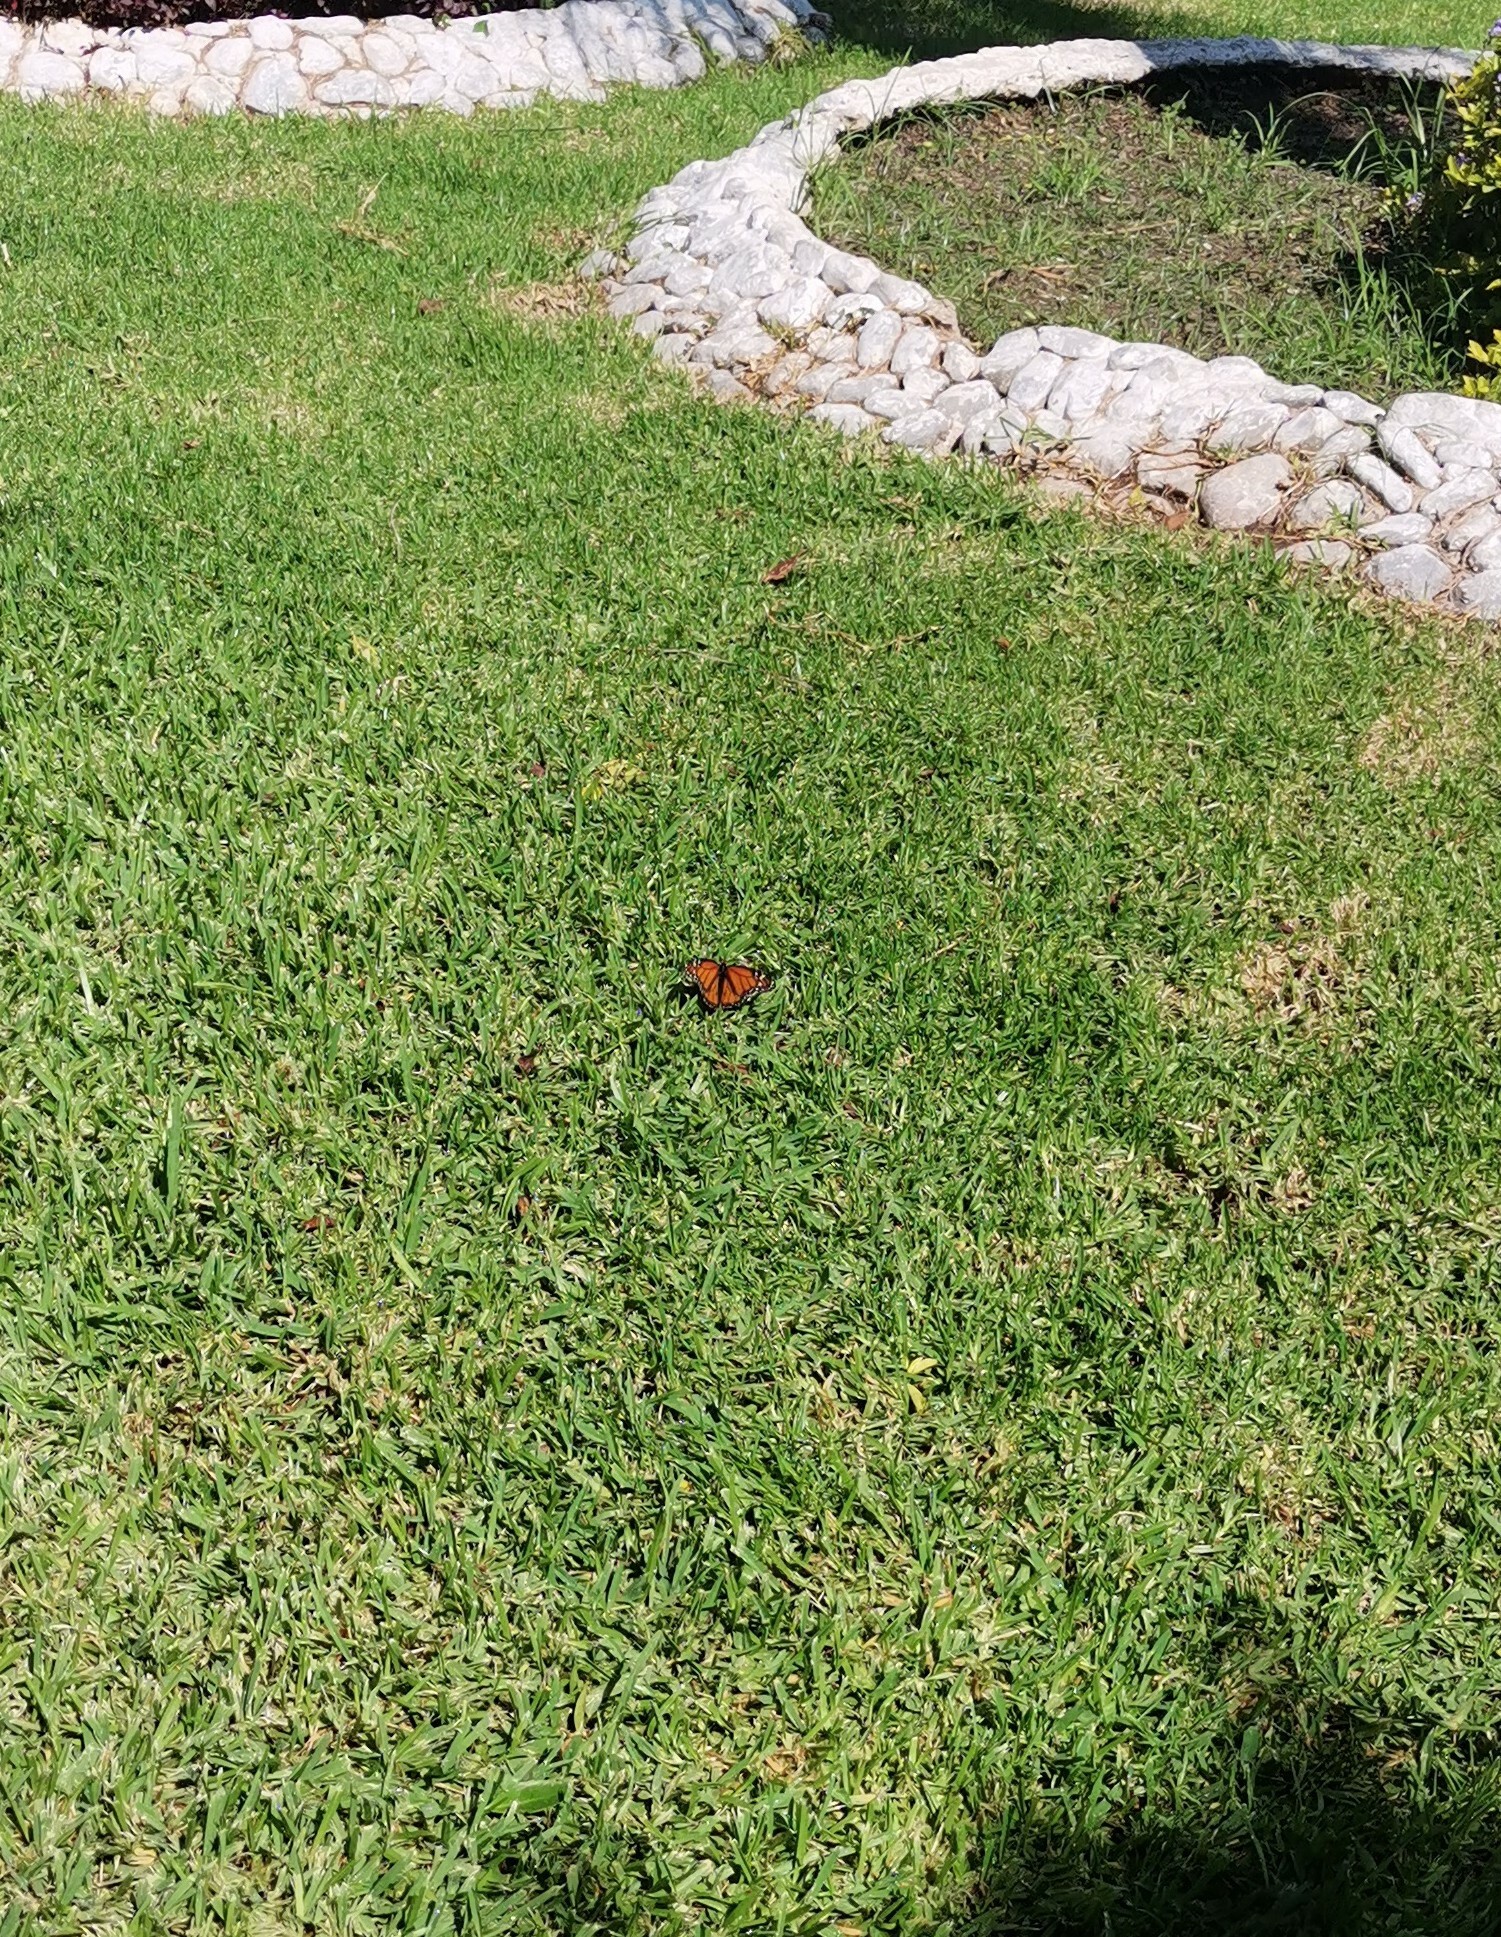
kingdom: Animalia
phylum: Arthropoda
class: Insecta
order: Lepidoptera
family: Nymphalidae
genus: Danaus
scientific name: Danaus plexippus
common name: Monarch
